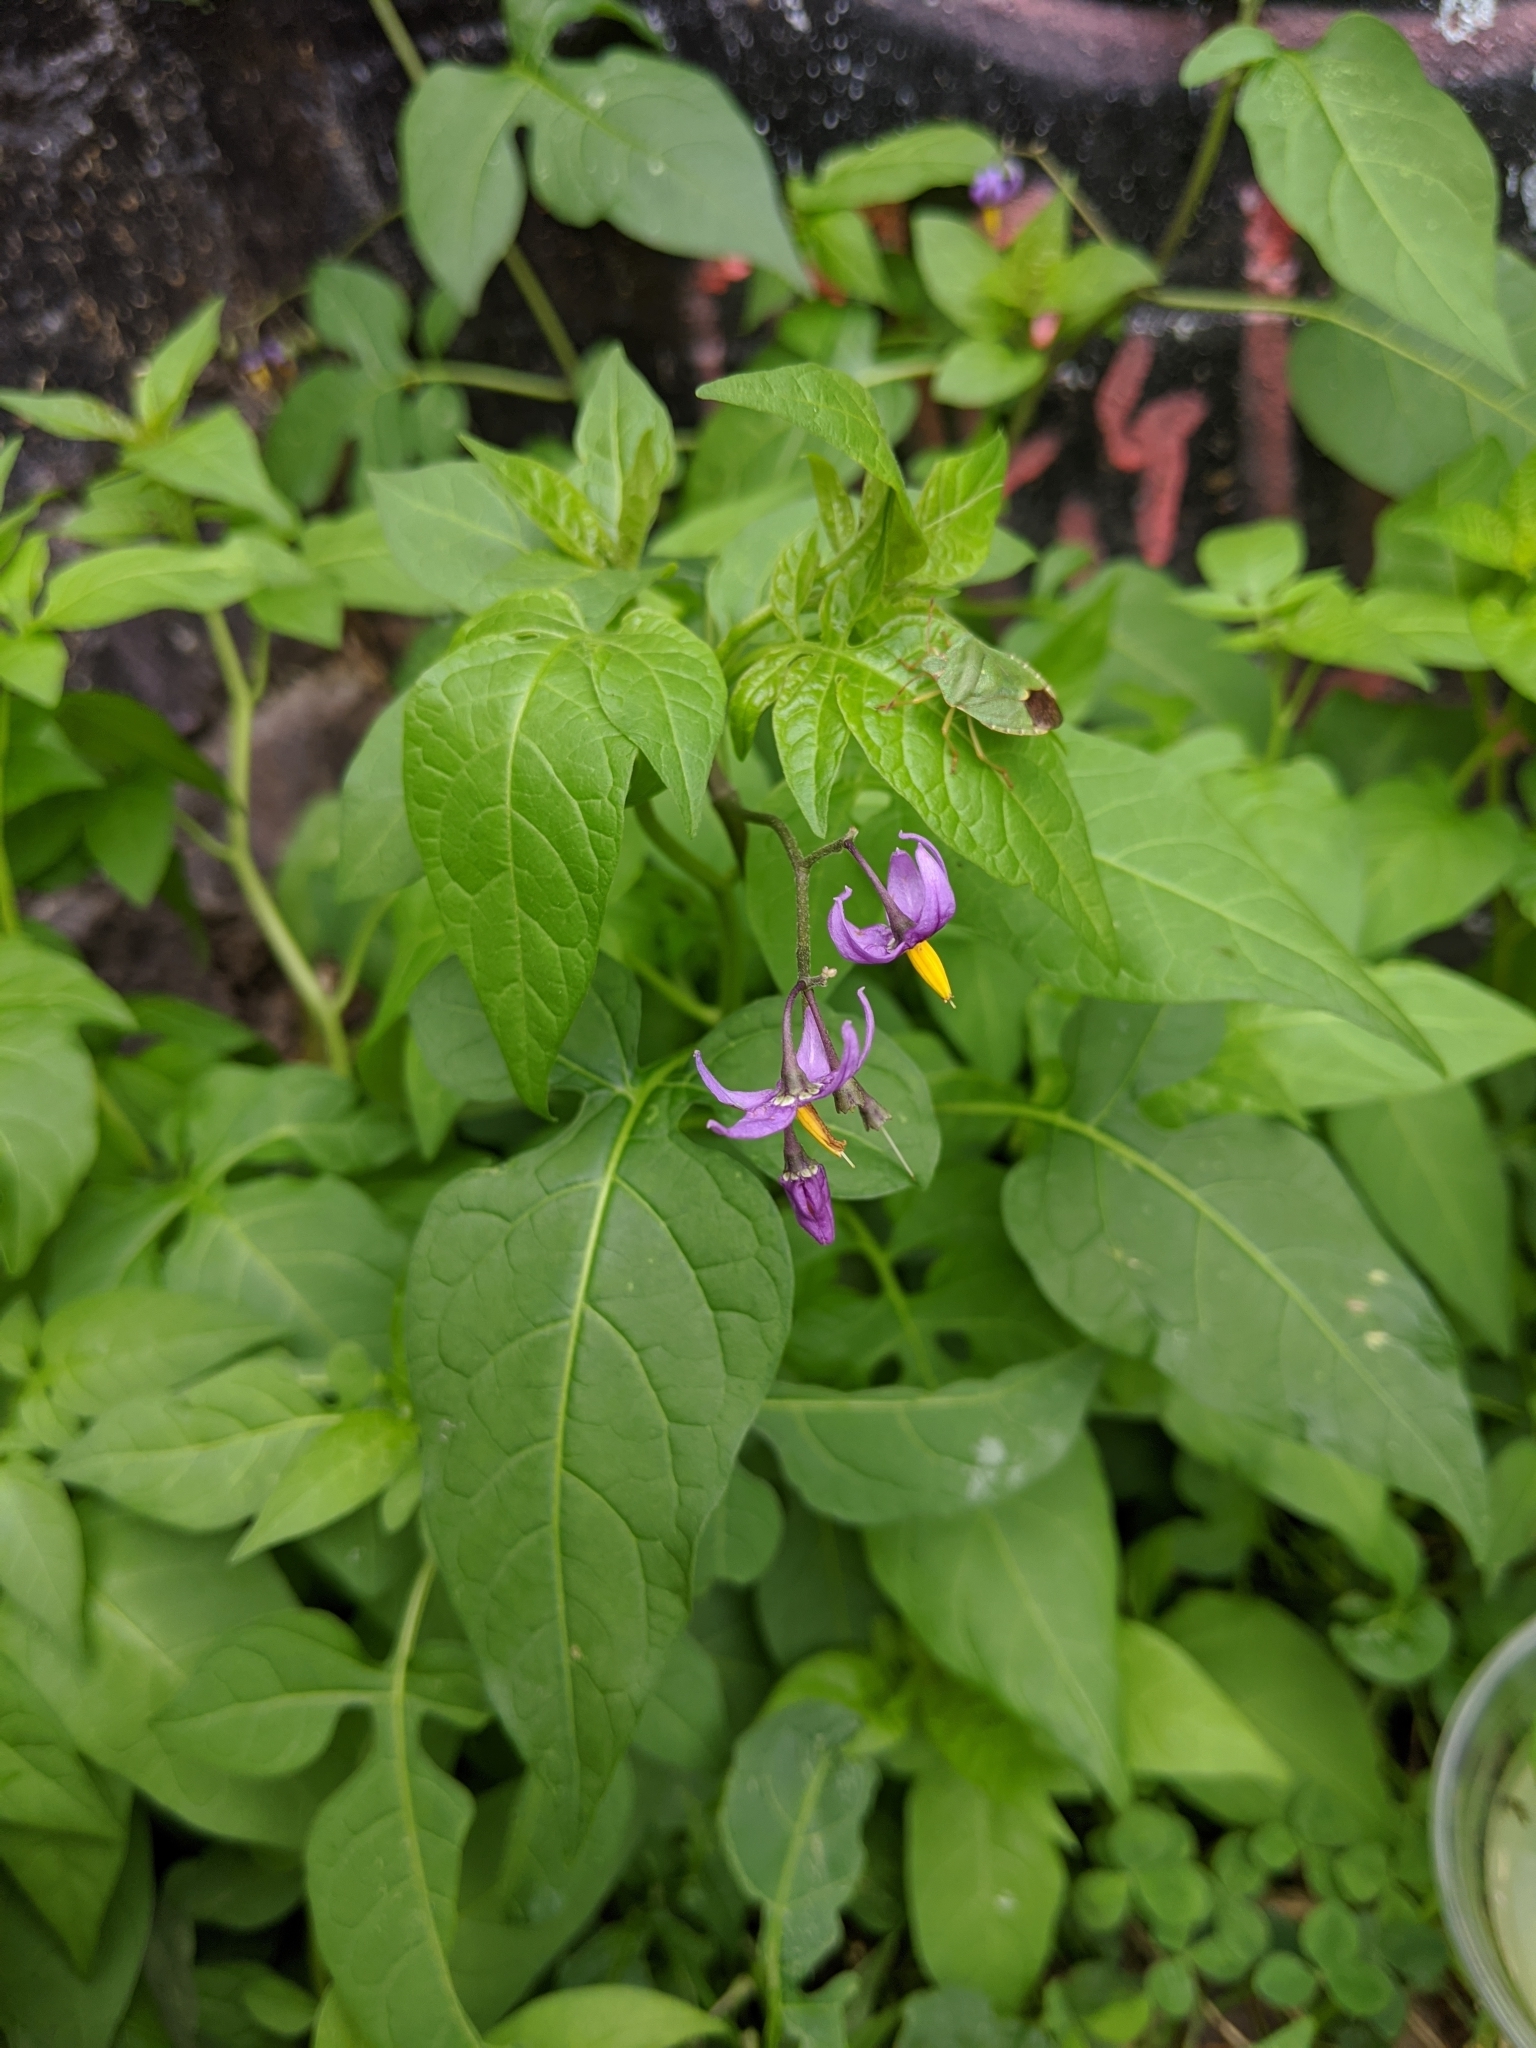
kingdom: Plantae
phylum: Tracheophyta
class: Magnoliopsida
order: Solanales
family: Solanaceae
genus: Solanum
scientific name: Solanum dulcamara
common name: Climbing nightshade
